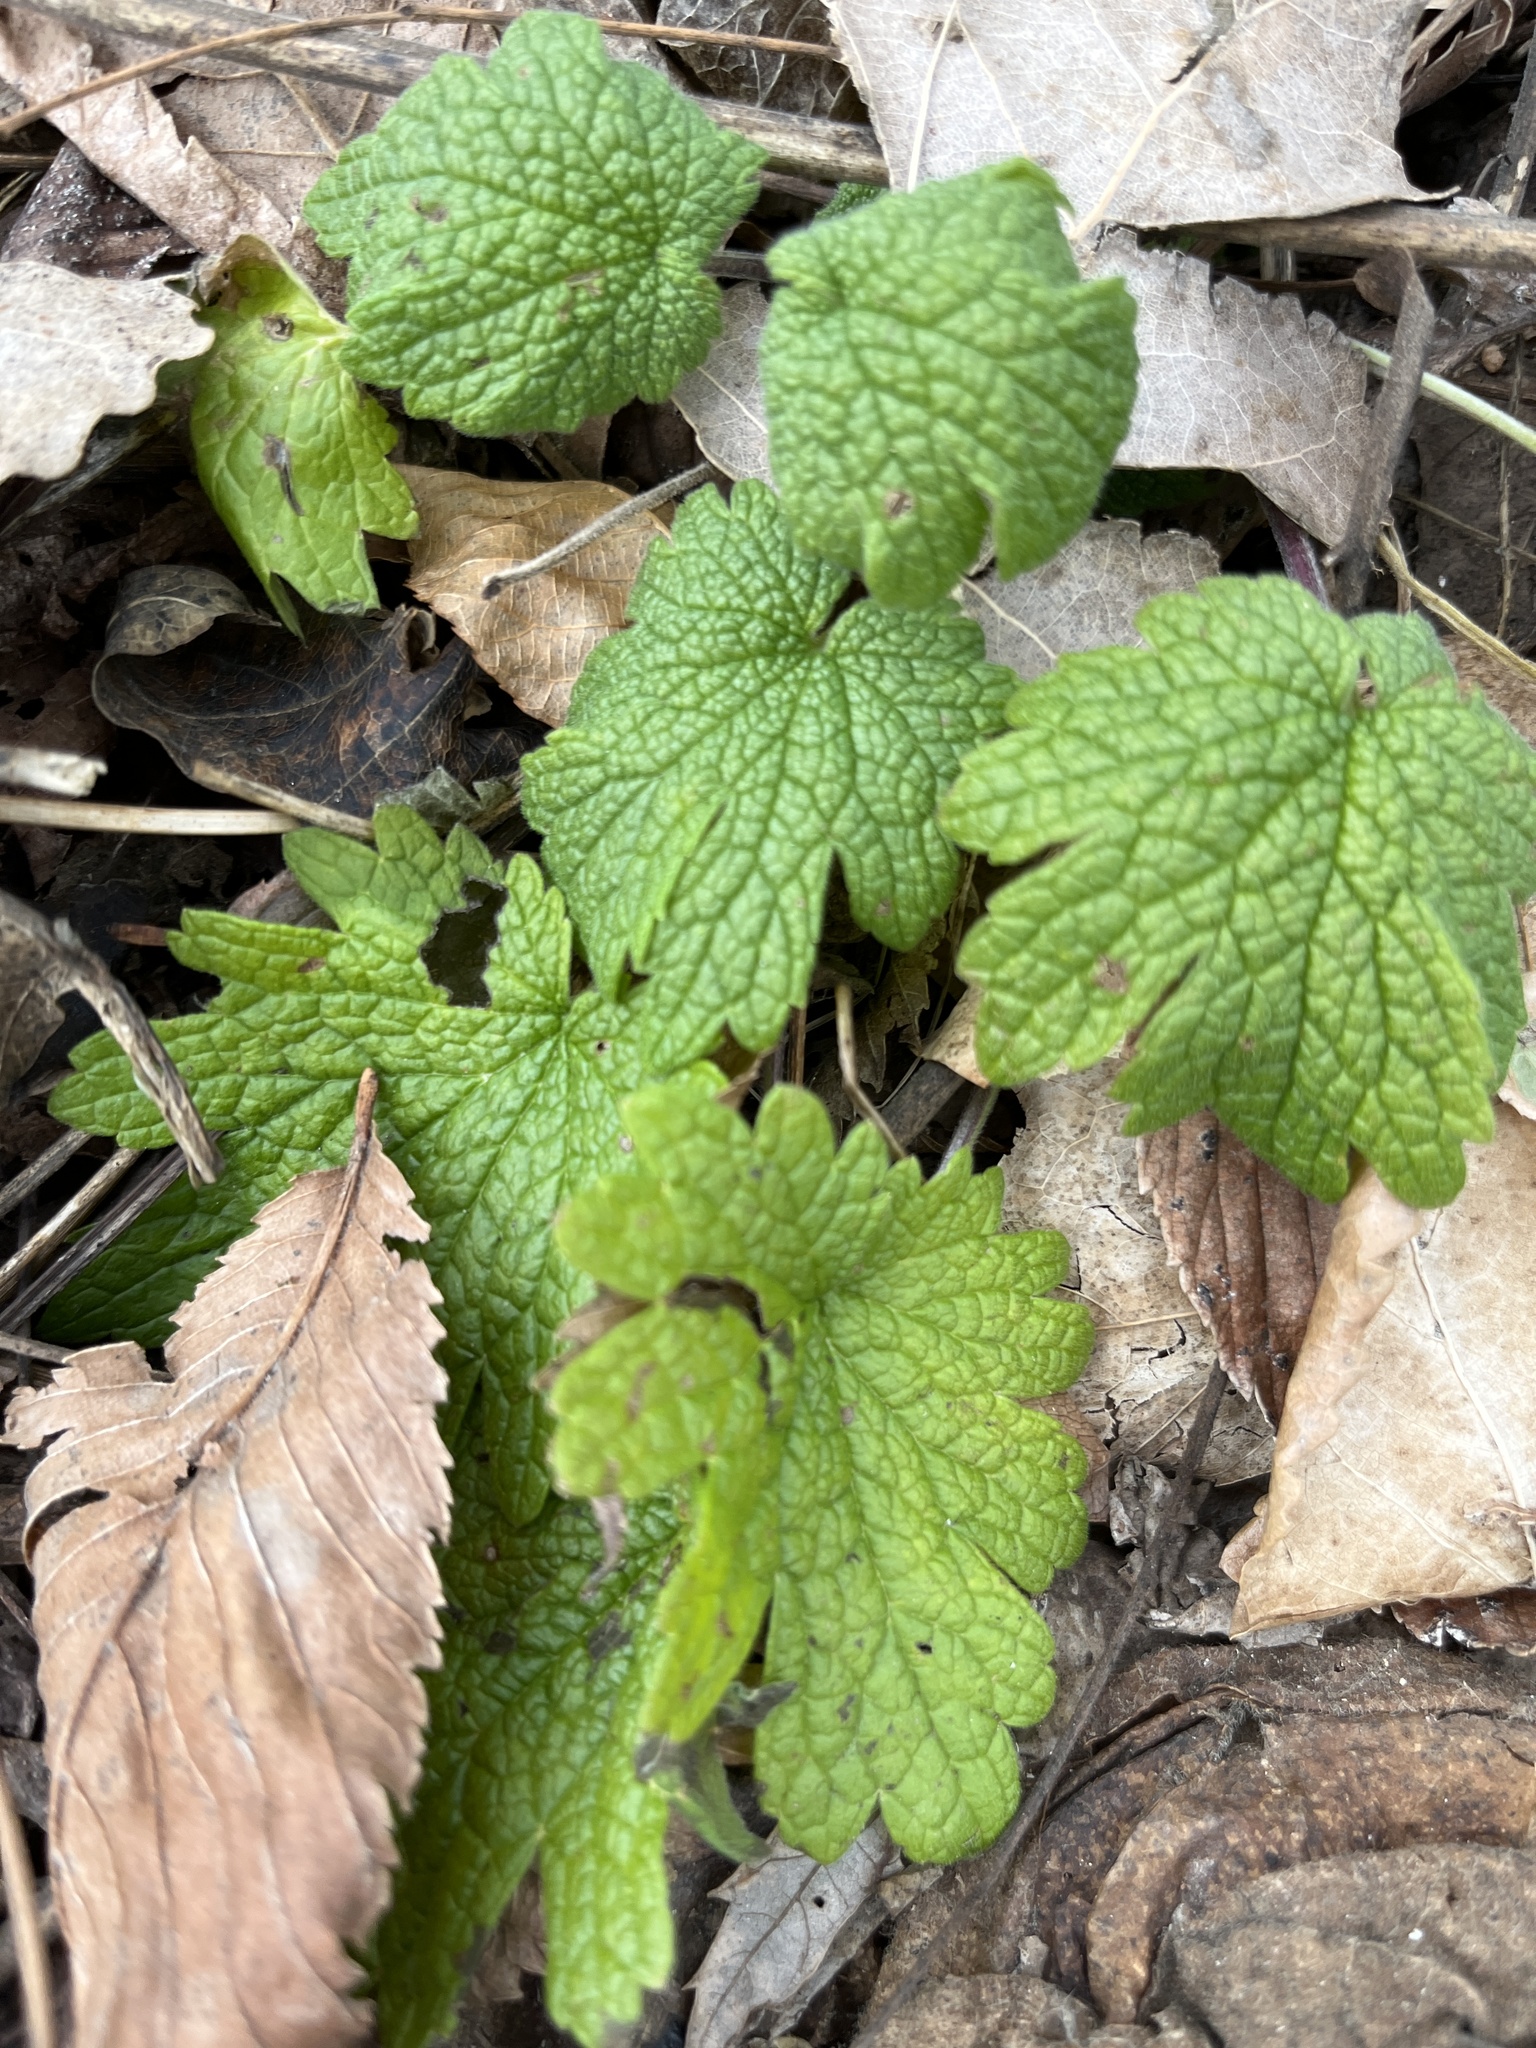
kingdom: Plantae
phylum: Tracheophyta
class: Magnoliopsida
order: Lamiales
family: Lamiaceae
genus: Leonurus
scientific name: Leonurus cardiaca
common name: Motherwort
